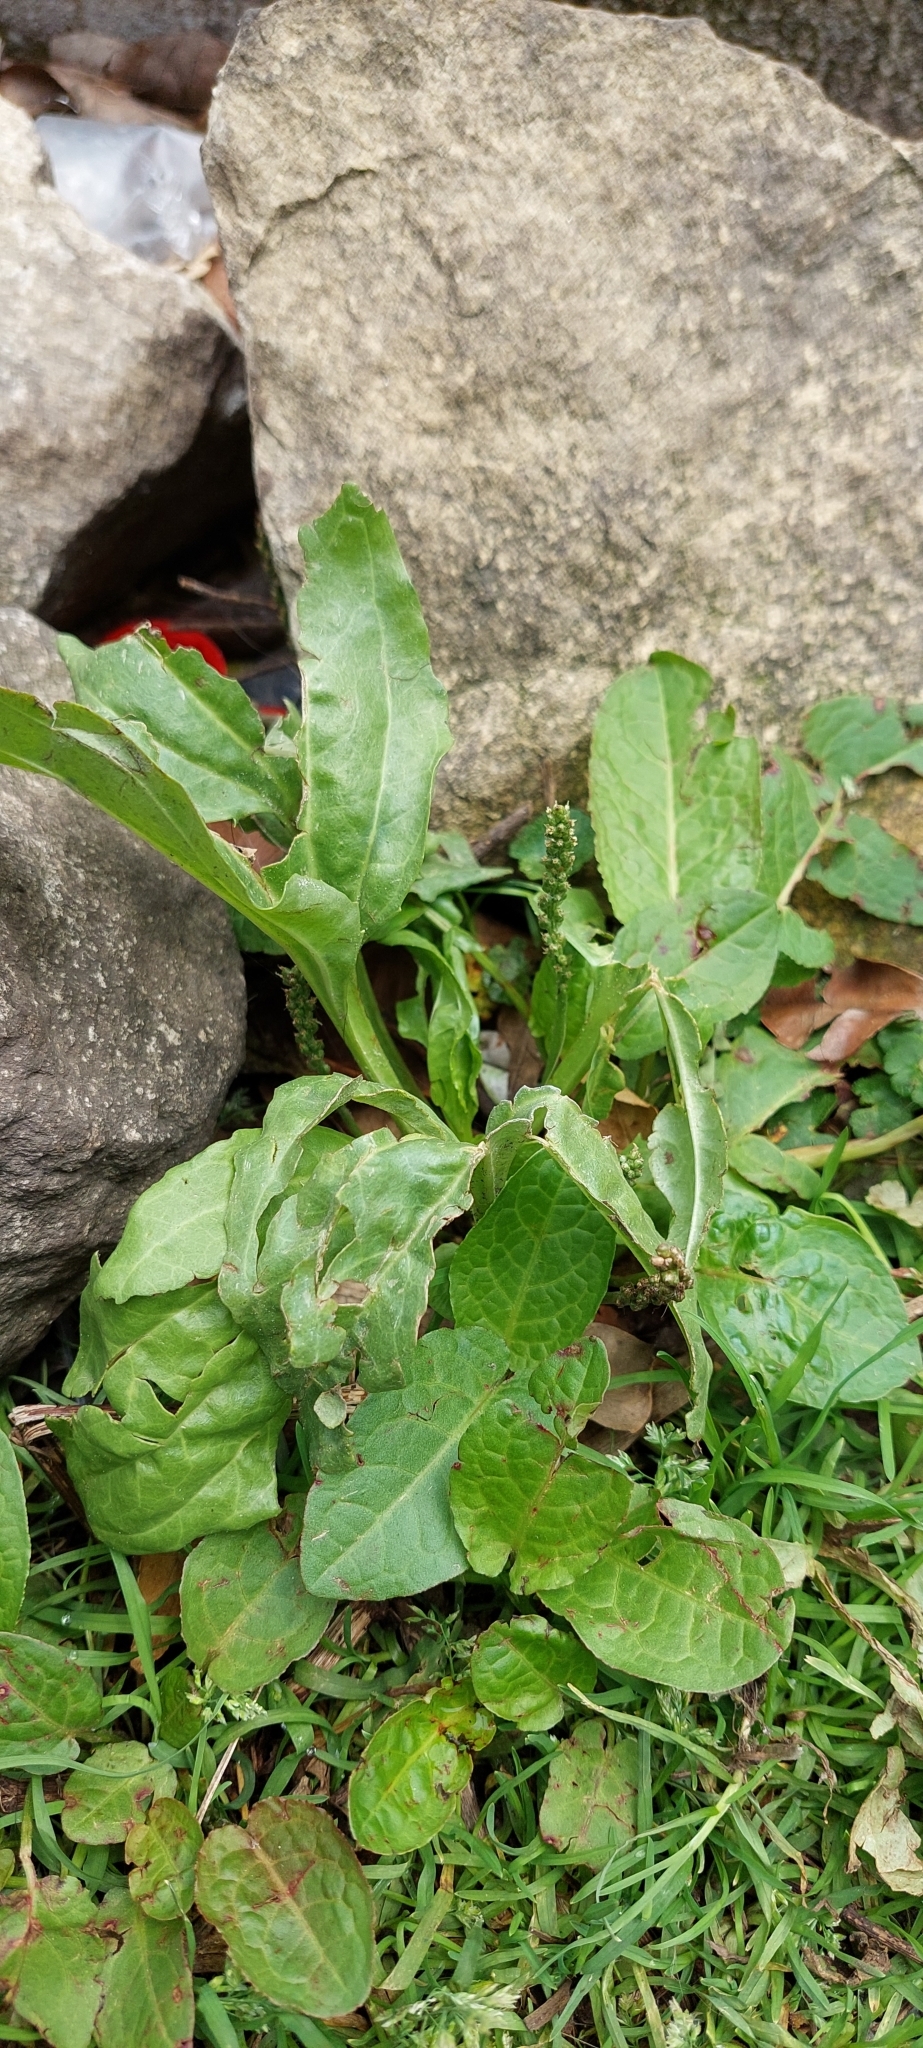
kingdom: Plantae
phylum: Tracheophyta
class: Magnoliopsida
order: Lamiales
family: Plantaginaceae
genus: Plantago
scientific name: Plantago major
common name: Common plantain
